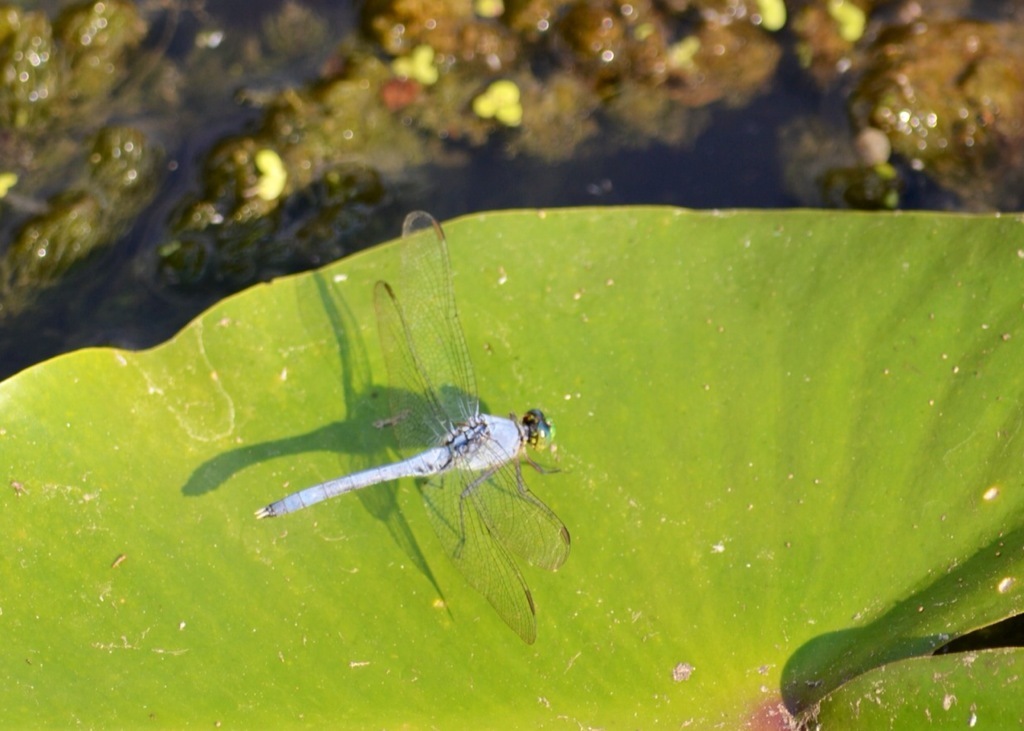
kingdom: Animalia
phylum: Arthropoda
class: Insecta
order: Odonata
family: Libellulidae
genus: Erythemis
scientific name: Erythemis simplicicollis
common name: Eastern pondhawk
